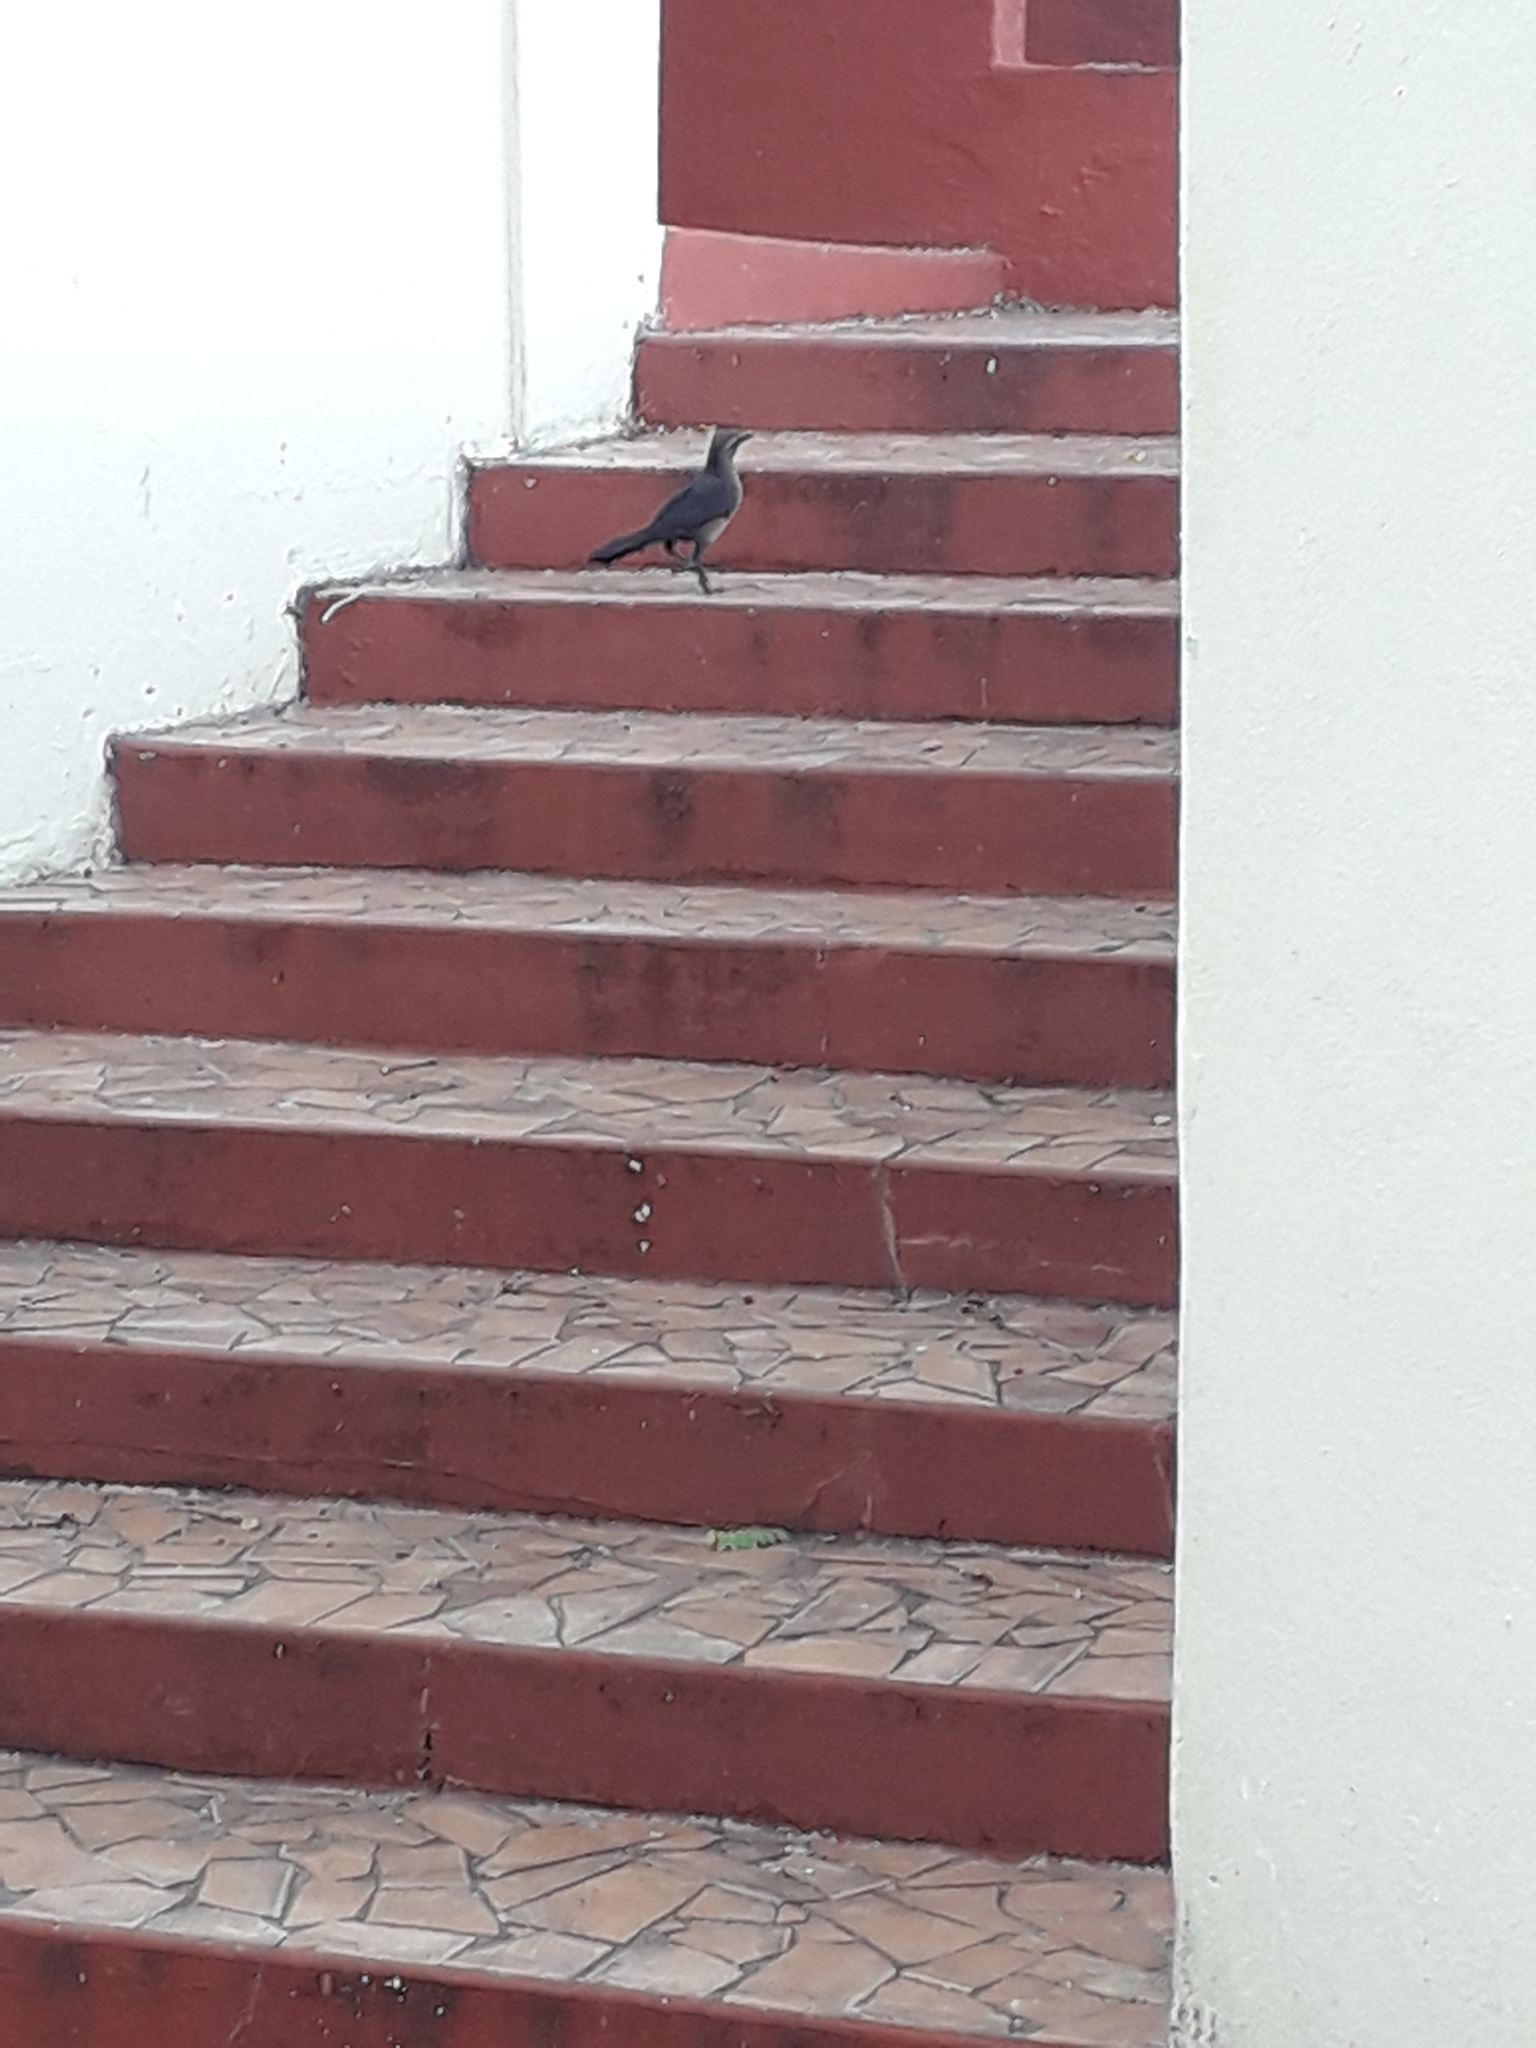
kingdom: Animalia
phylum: Chordata
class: Aves
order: Passeriformes
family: Icteridae
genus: Quiscalus
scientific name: Quiscalus mexicanus
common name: Great-tailed grackle
